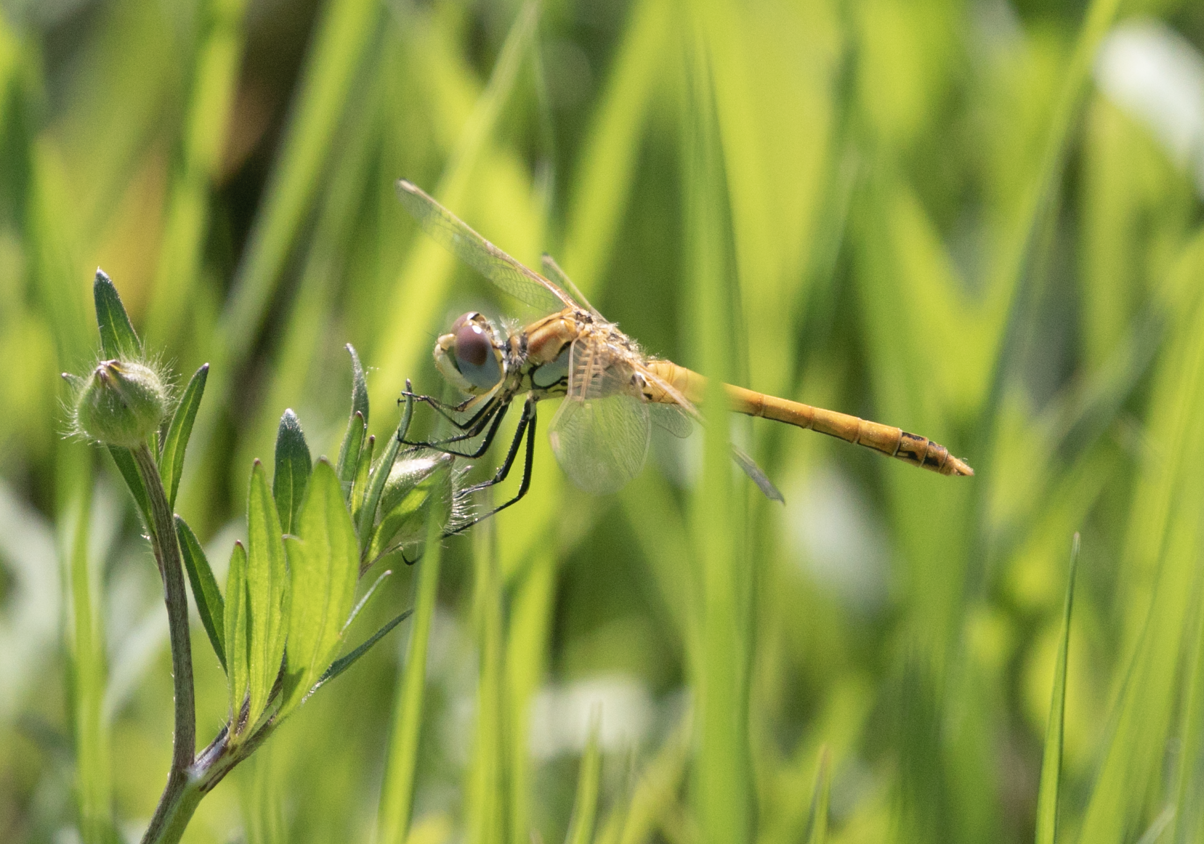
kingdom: Animalia
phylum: Arthropoda
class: Insecta
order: Odonata
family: Libellulidae
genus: Sympetrum
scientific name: Sympetrum fonscolombii
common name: Red-veined darter
